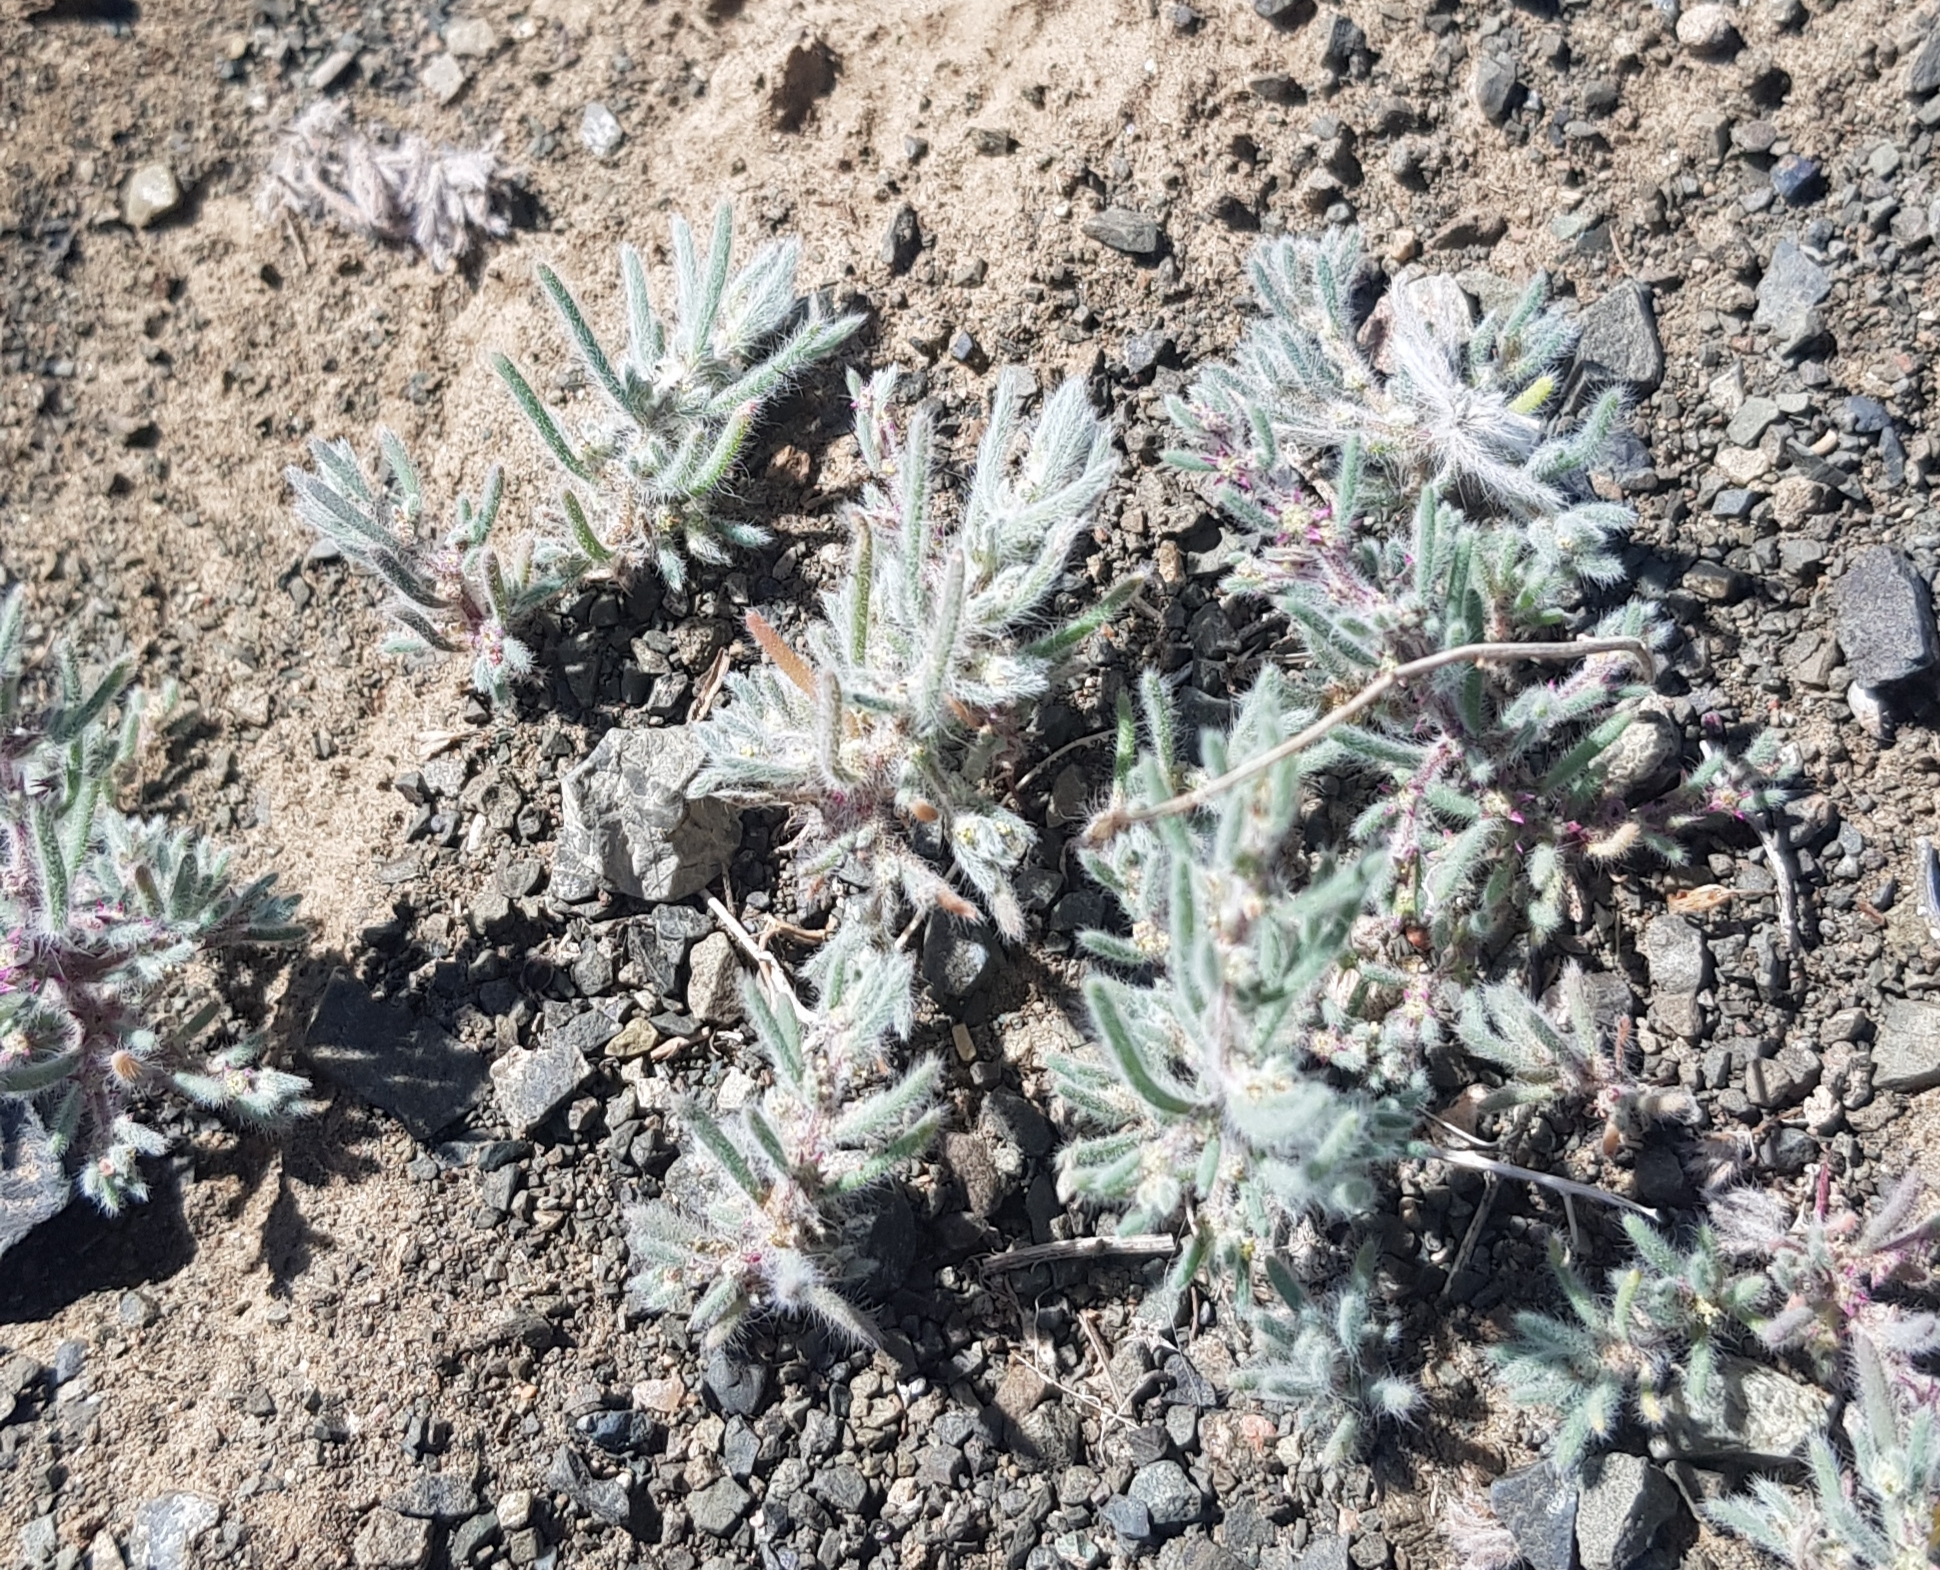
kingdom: Plantae
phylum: Tracheophyta
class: Magnoliopsida
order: Caryophyllales
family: Amaranthaceae
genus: Grubovia
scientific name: Grubovia dasyphylla
